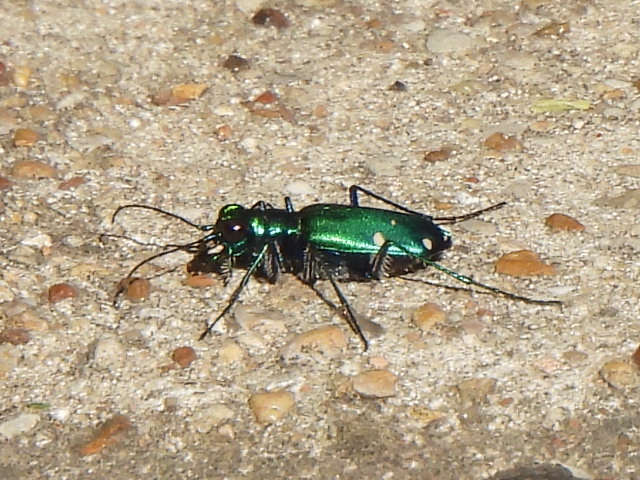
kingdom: Animalia
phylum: Arthropoda
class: Insecta
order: Coleoptera
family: Carabidae
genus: Cicindela
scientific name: Cicindela sexguttata
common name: Six-spotted tiger beetle
